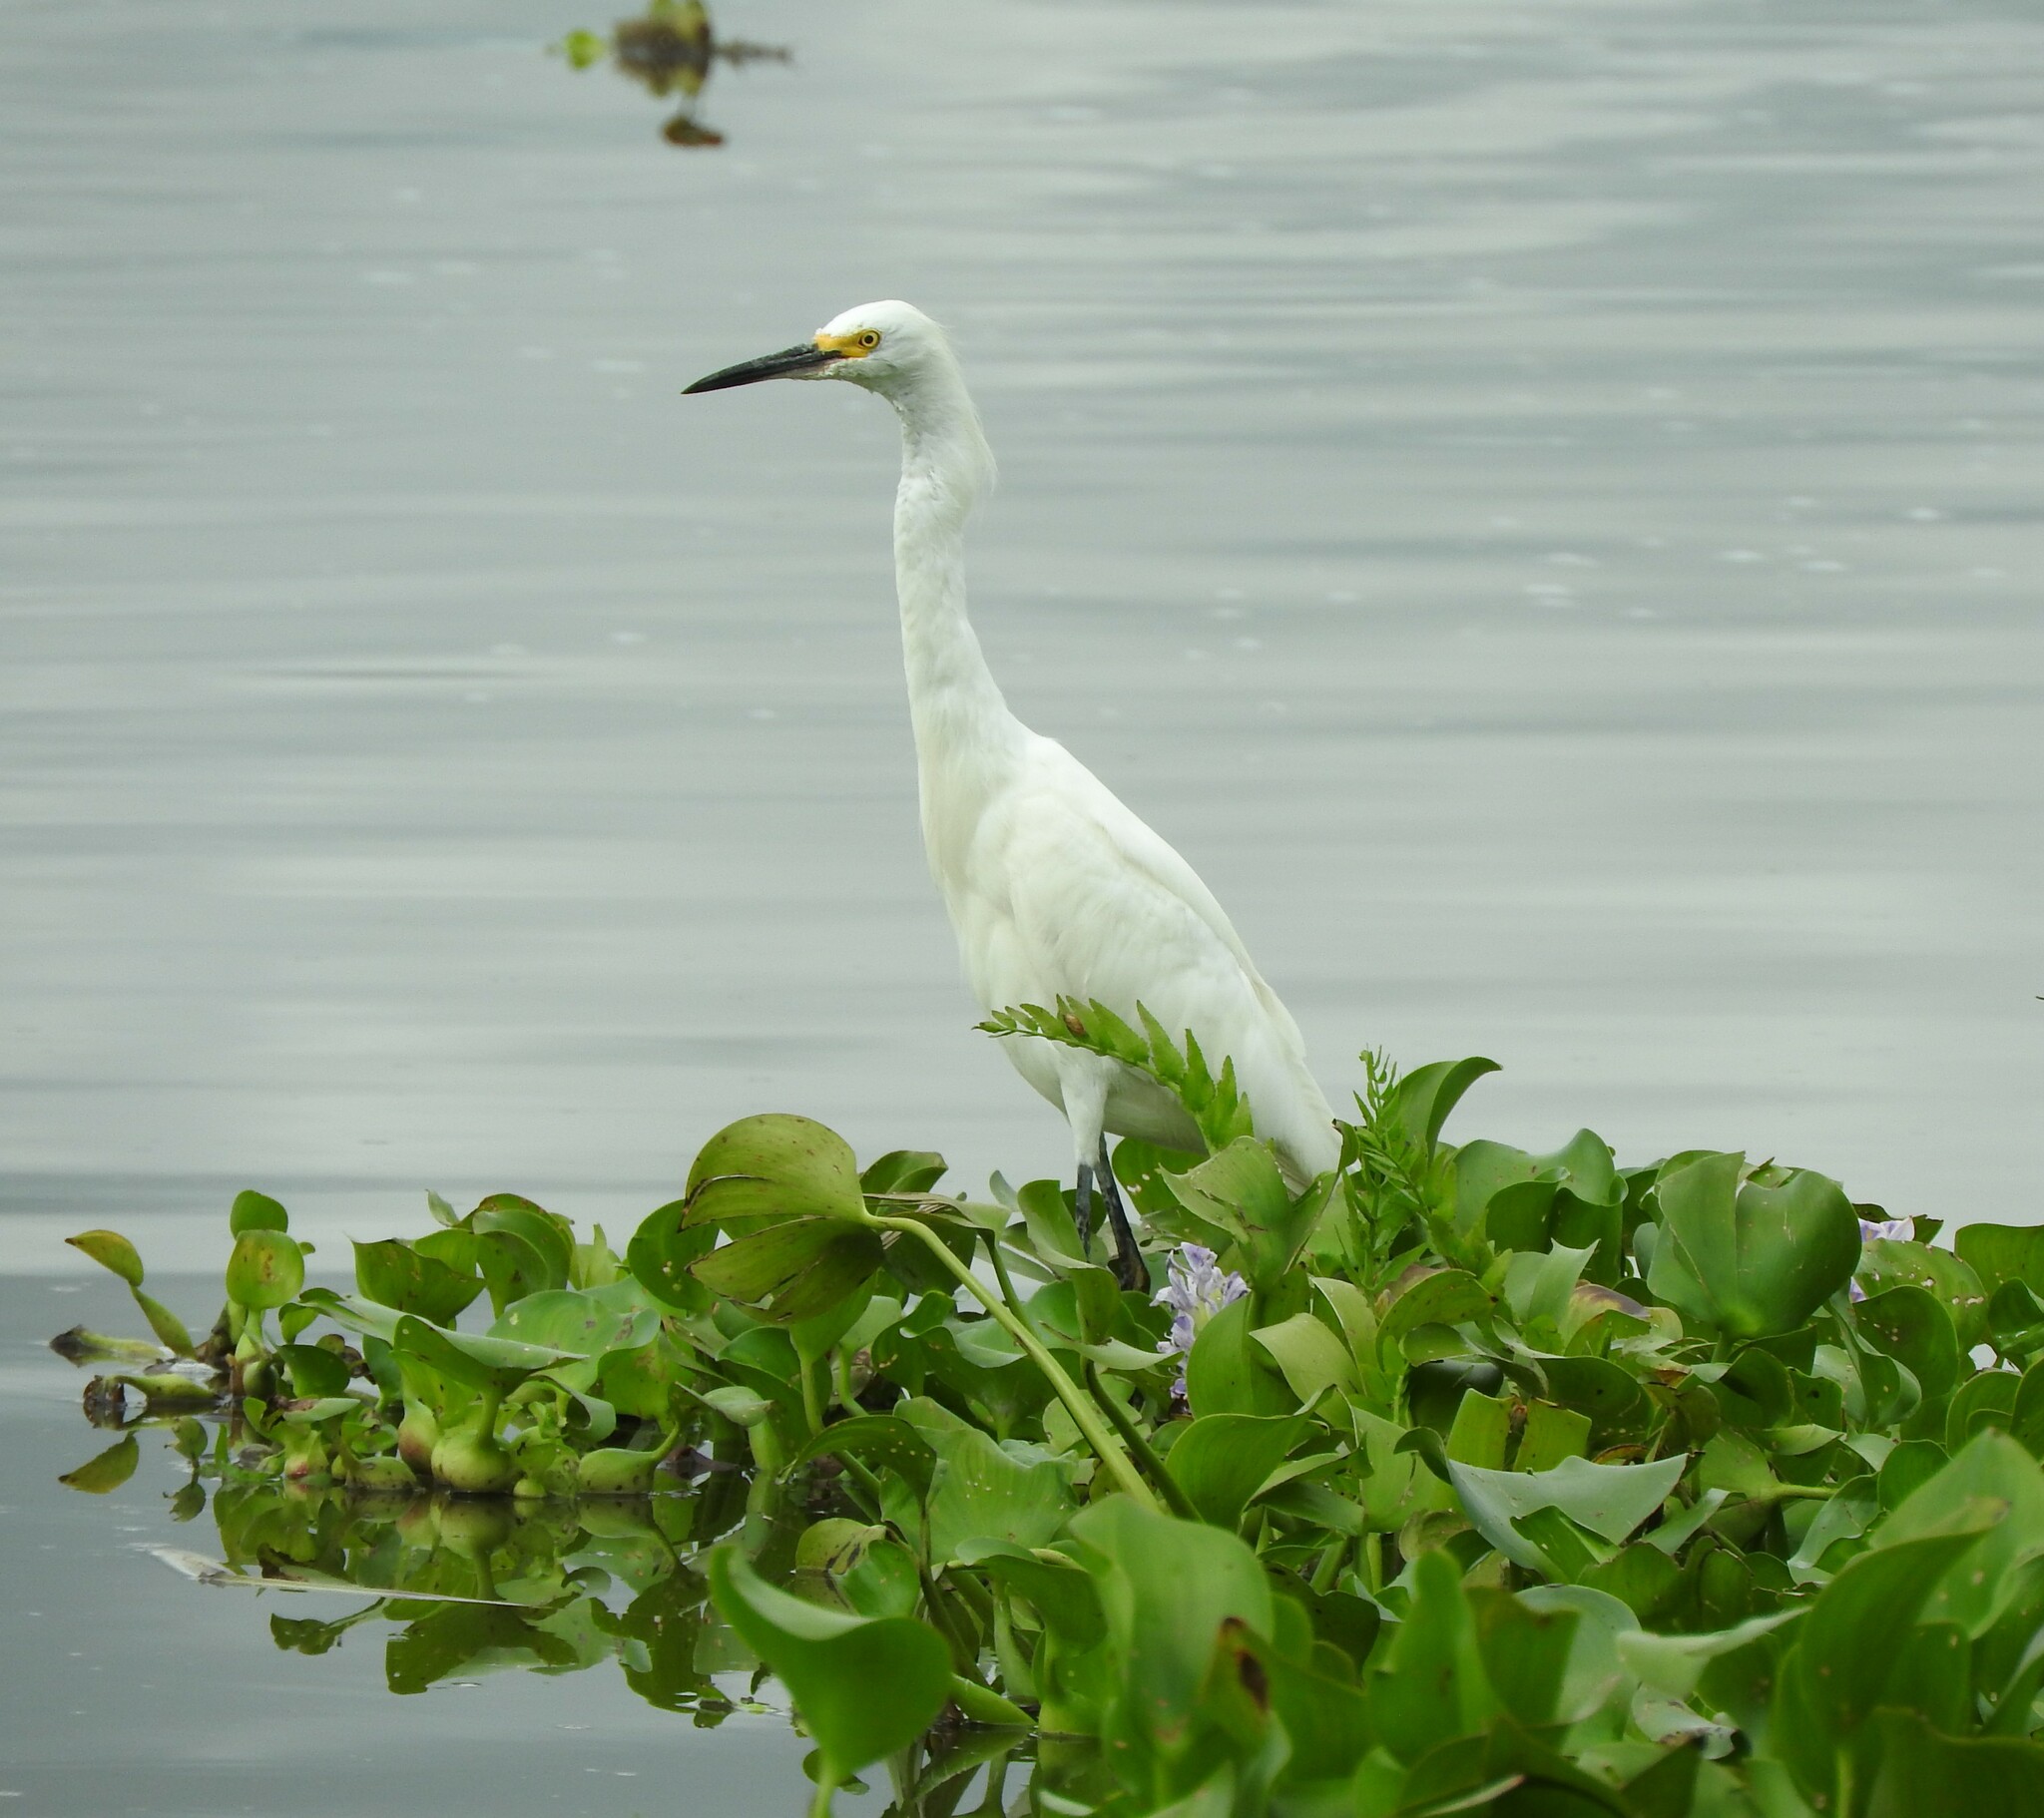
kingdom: Animalia
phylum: Chordata
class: Aves
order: Pelecaniformes
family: Ardeidae
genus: Egretta
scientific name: Egretta thula
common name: Snowy egret
